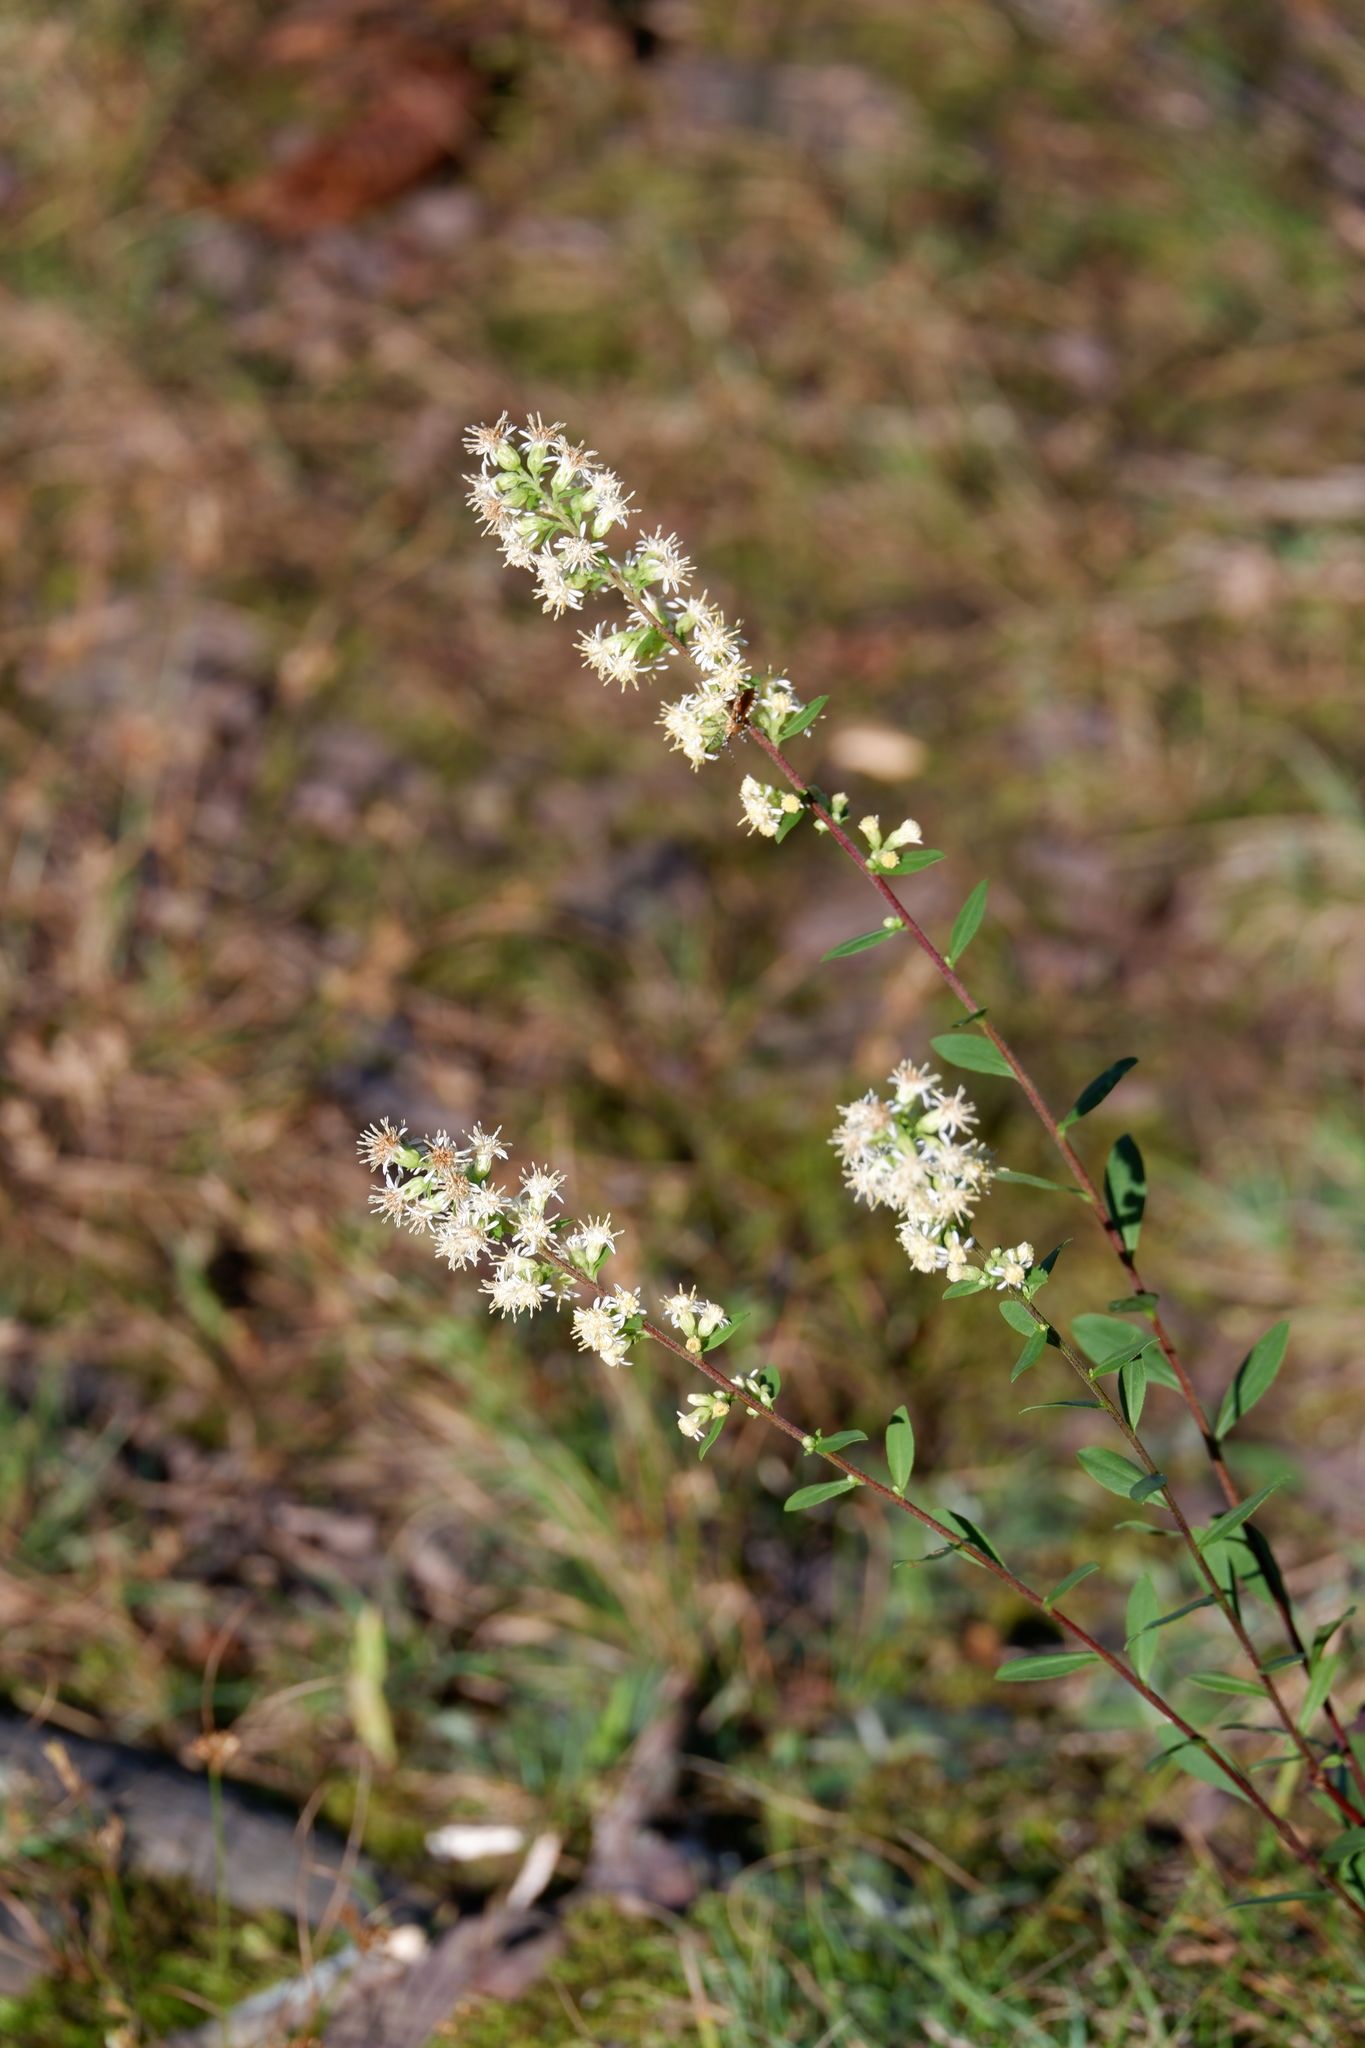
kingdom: Plantae
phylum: Tracheophyta
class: Magnoliopsida
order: Asterales
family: Asteraceae
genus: Solidago
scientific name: Solidago bicolor
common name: Silverrod
